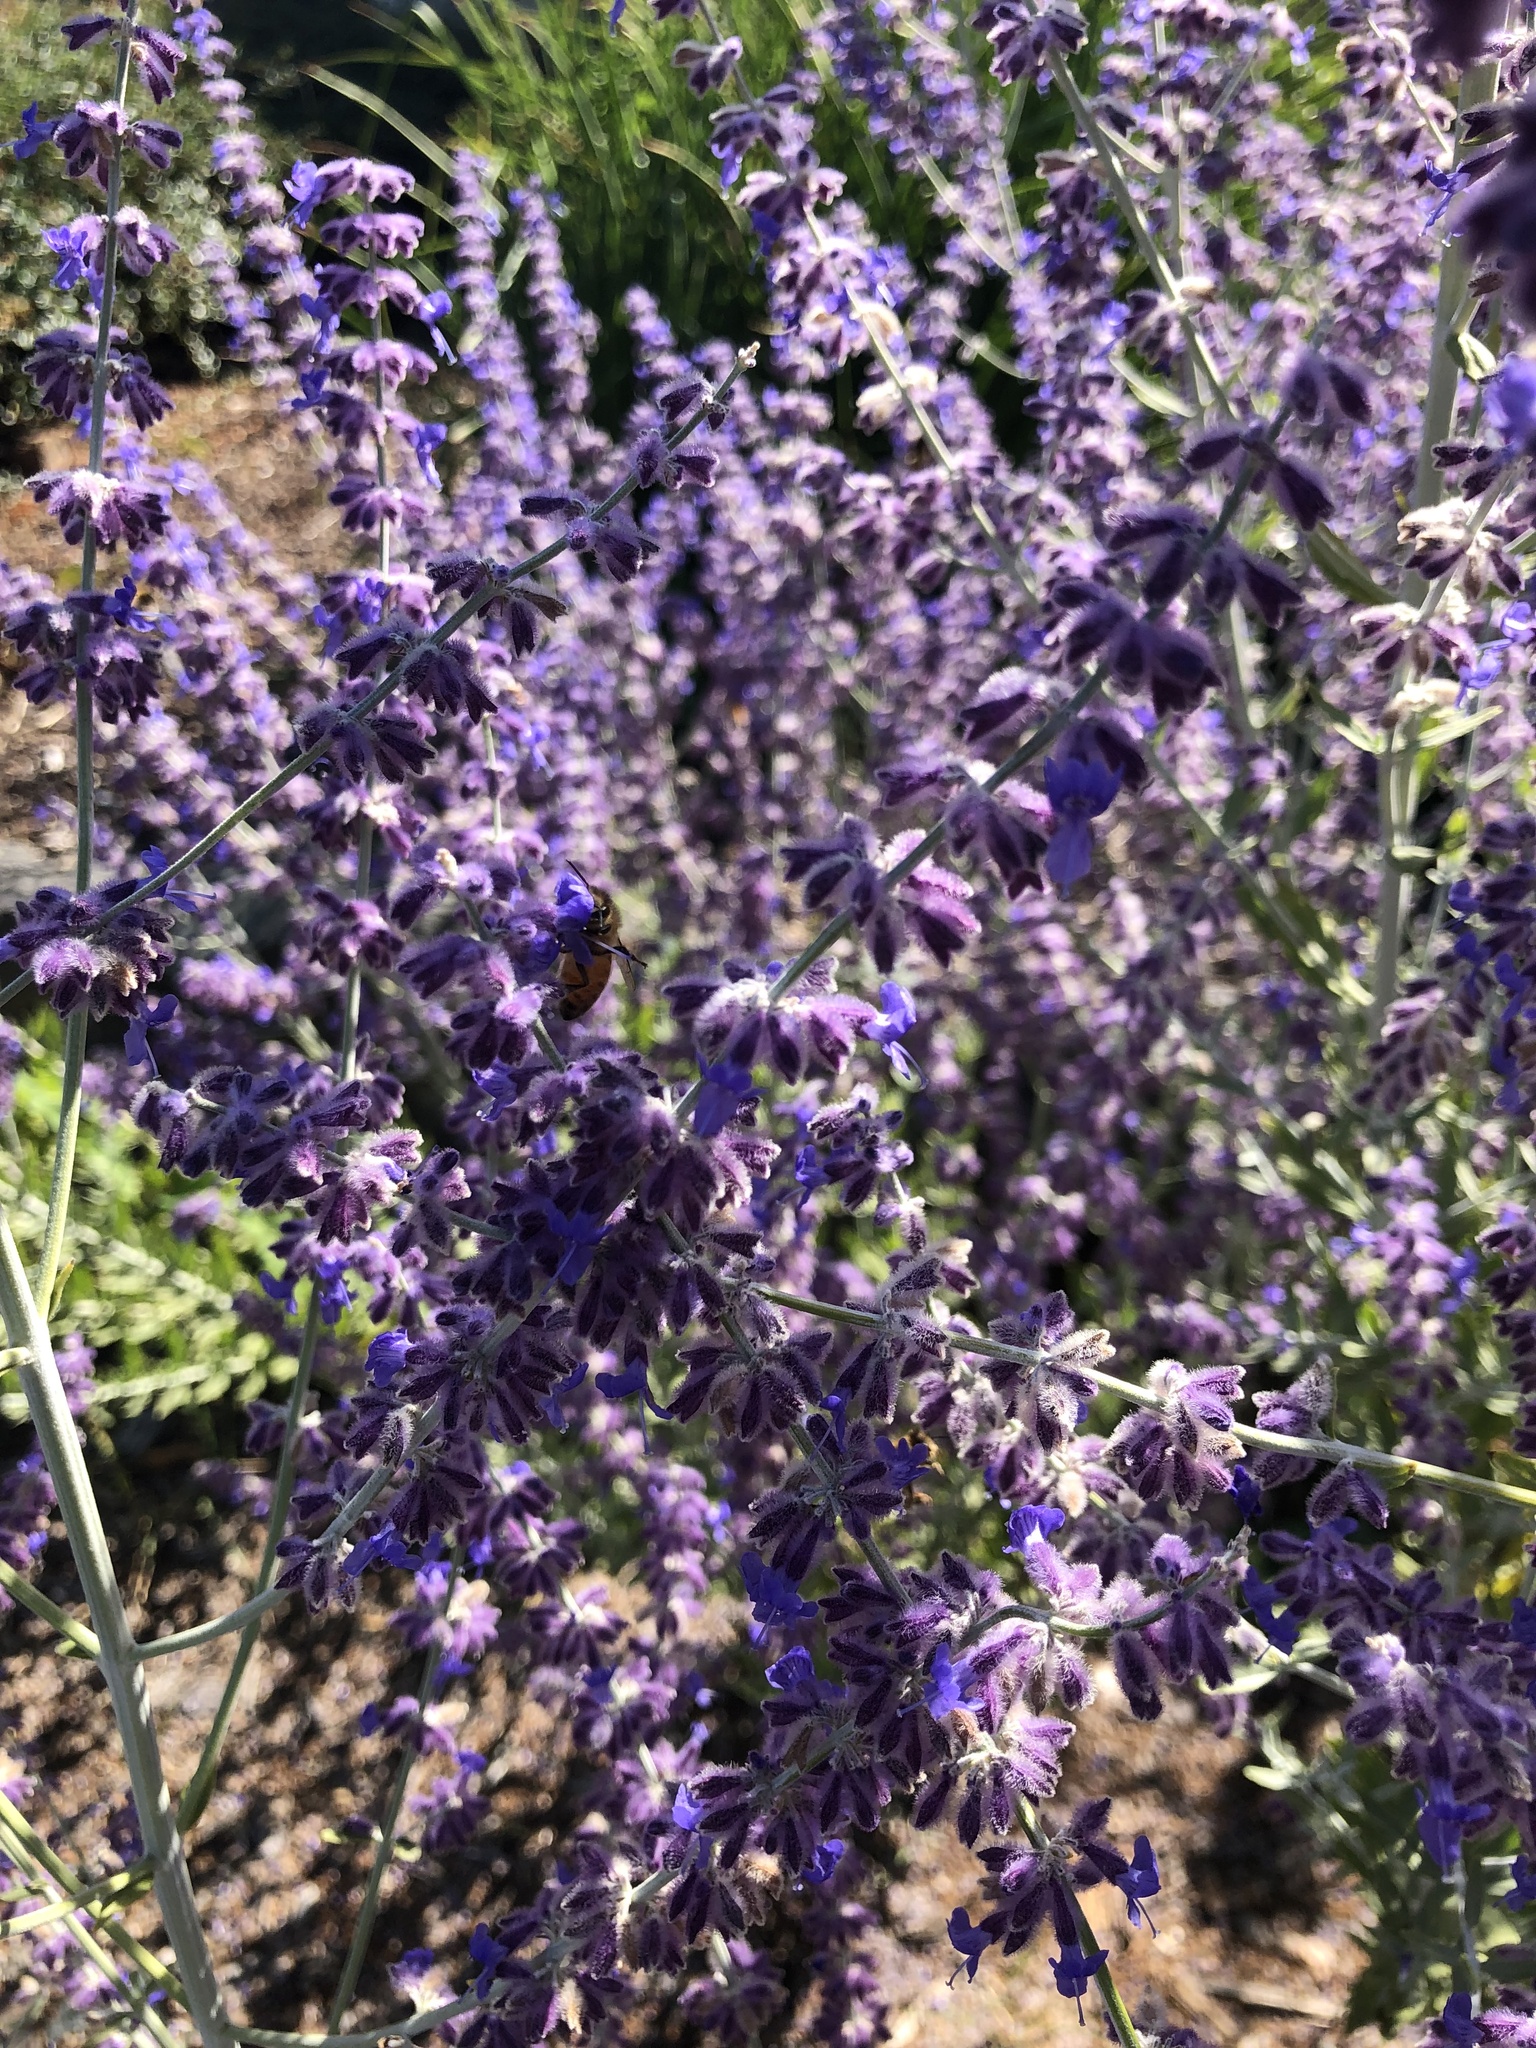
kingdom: Animalia
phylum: Arthropoda
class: Insecta
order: Hymenoptera
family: Apidae
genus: Apis
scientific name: Apis mellifera
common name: Honey bee
